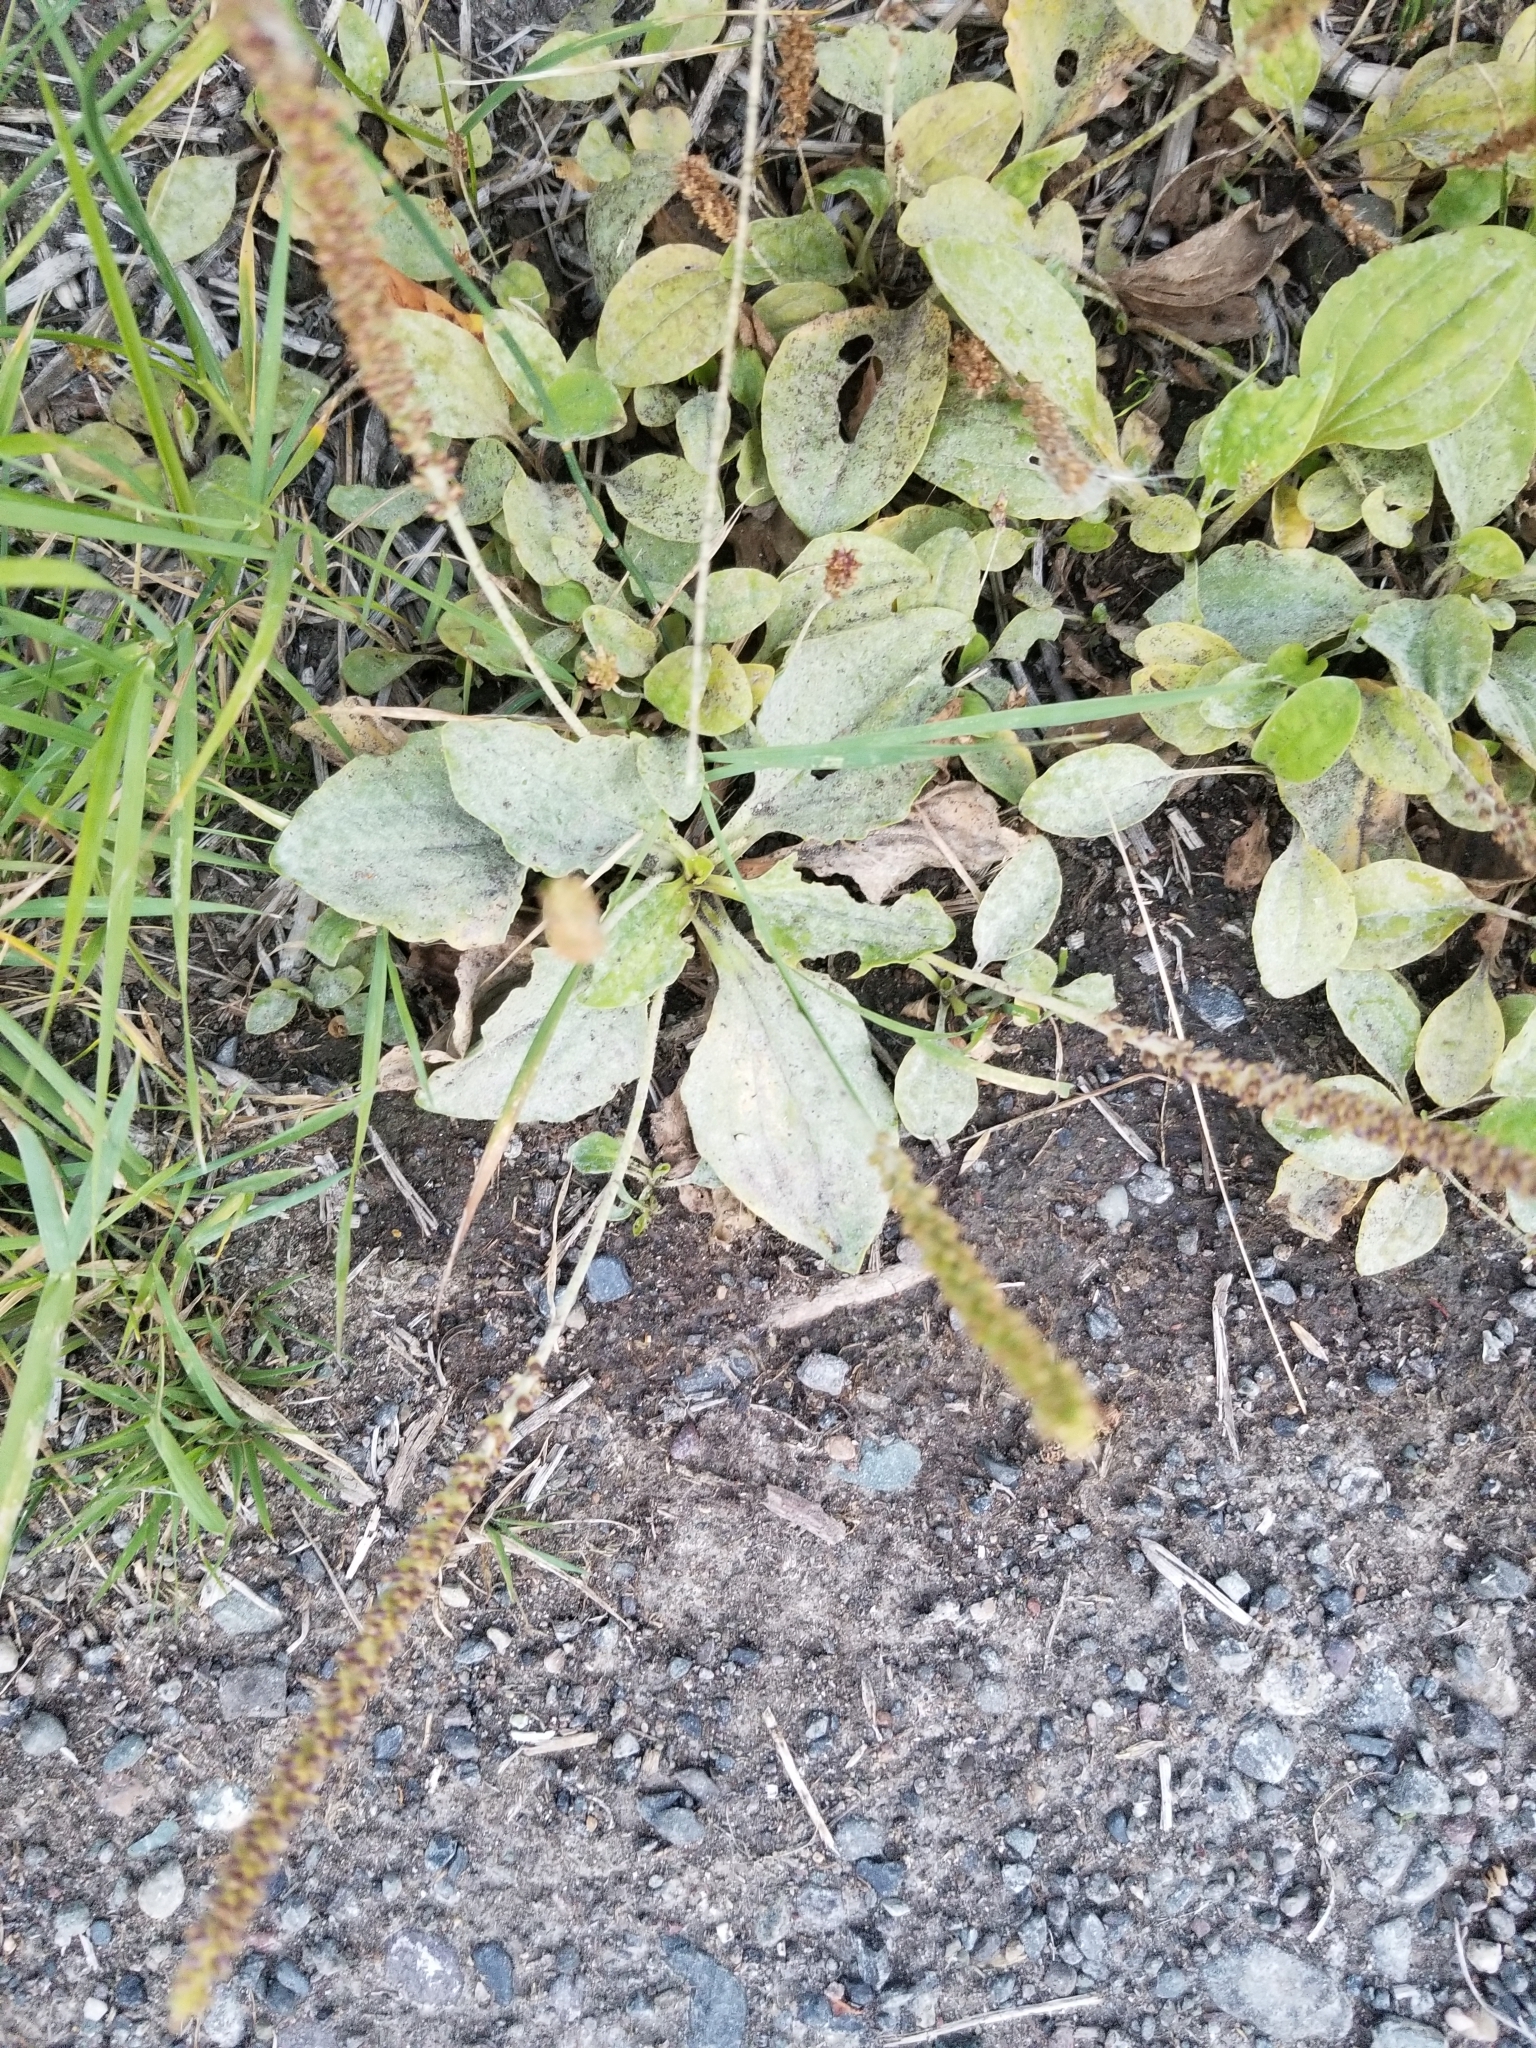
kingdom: Plantae
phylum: Tracheophyta
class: Magnoliopsida
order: Lamiales
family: Plantaginaceae
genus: Plantago
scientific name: Plantago major
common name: Common plantain
